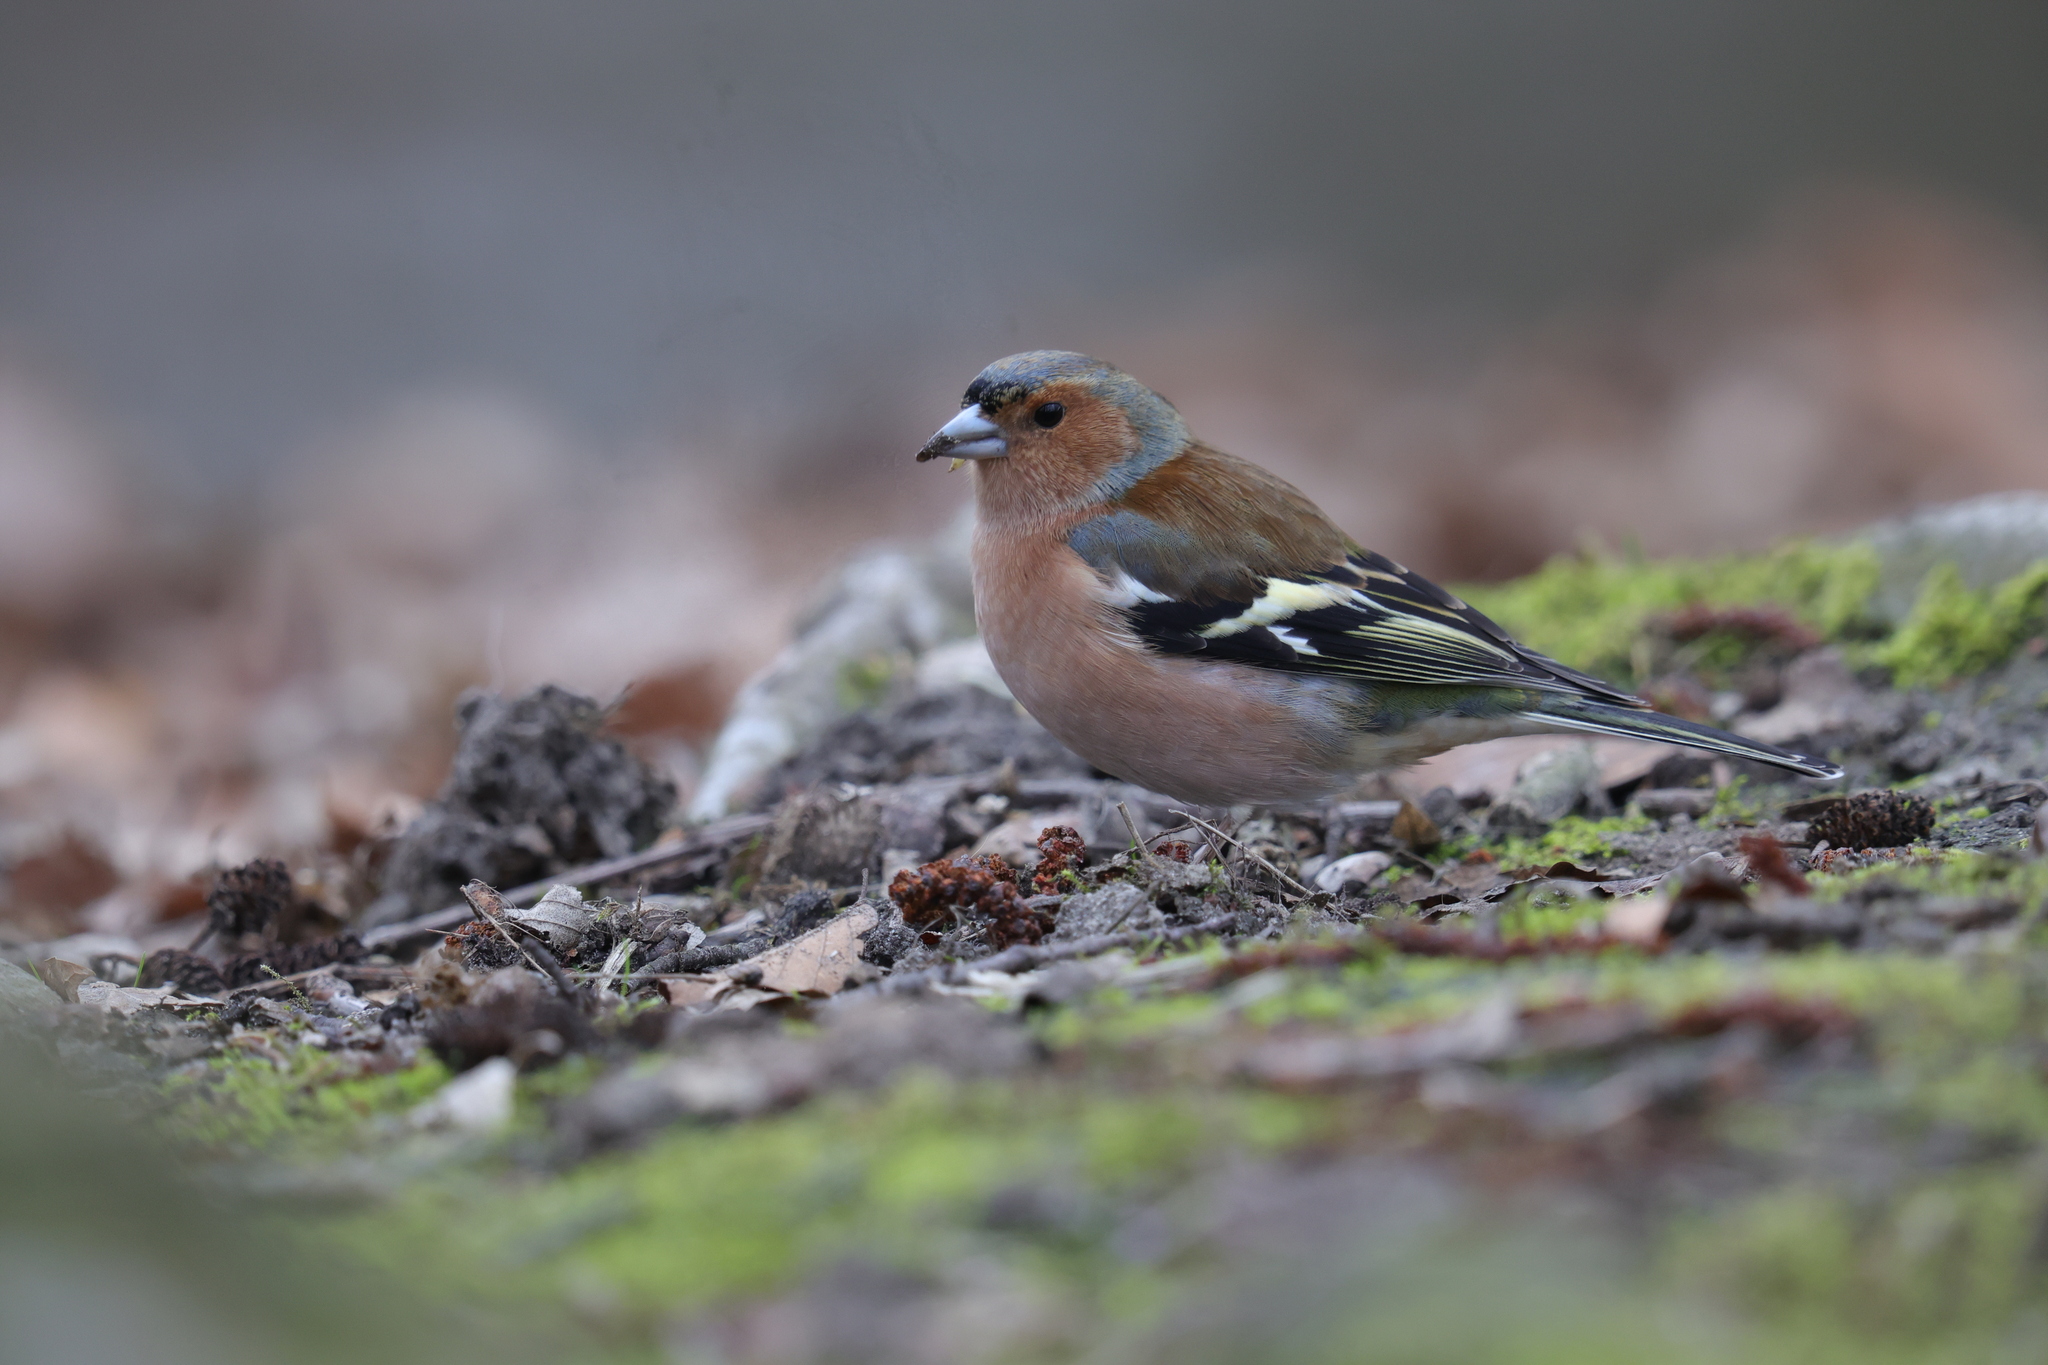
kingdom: Animalia
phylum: Chordata
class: Aves
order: Passeriformes
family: Fringillidae
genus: Fringilla
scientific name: Fringilla coelebs
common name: Common chaffinch
